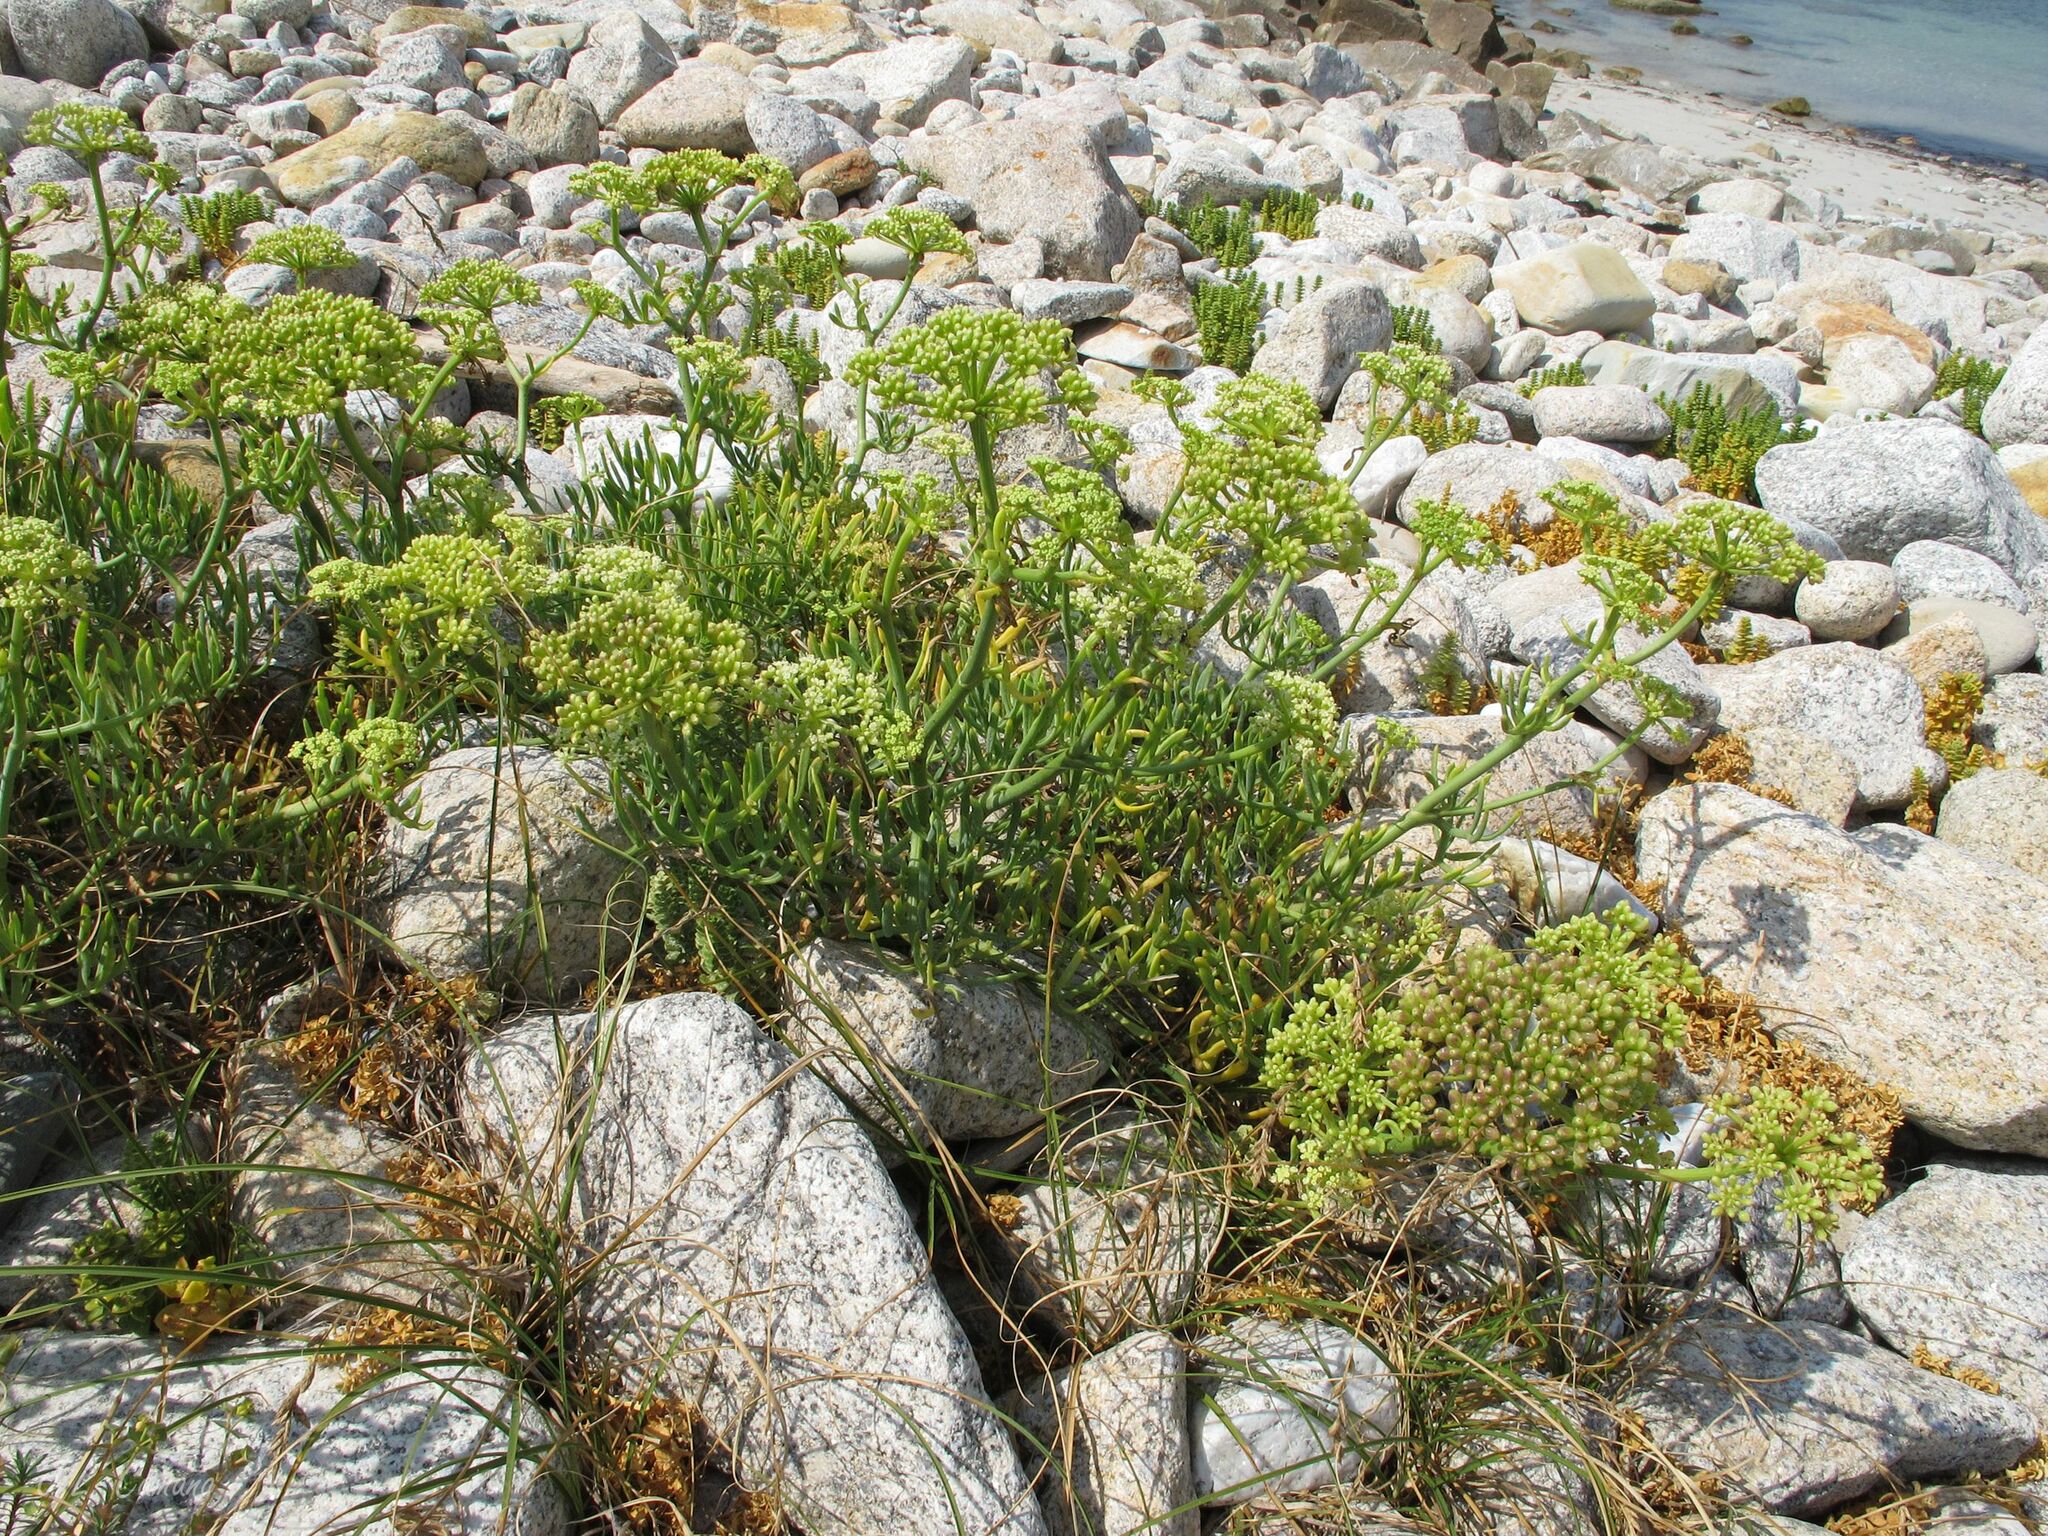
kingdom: Plantae
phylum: Tracheophyta
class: Magnoliopsida
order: Apiales
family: Apiaceae
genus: Crithmum
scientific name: Crithmum maritimum
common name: Rock samphire
